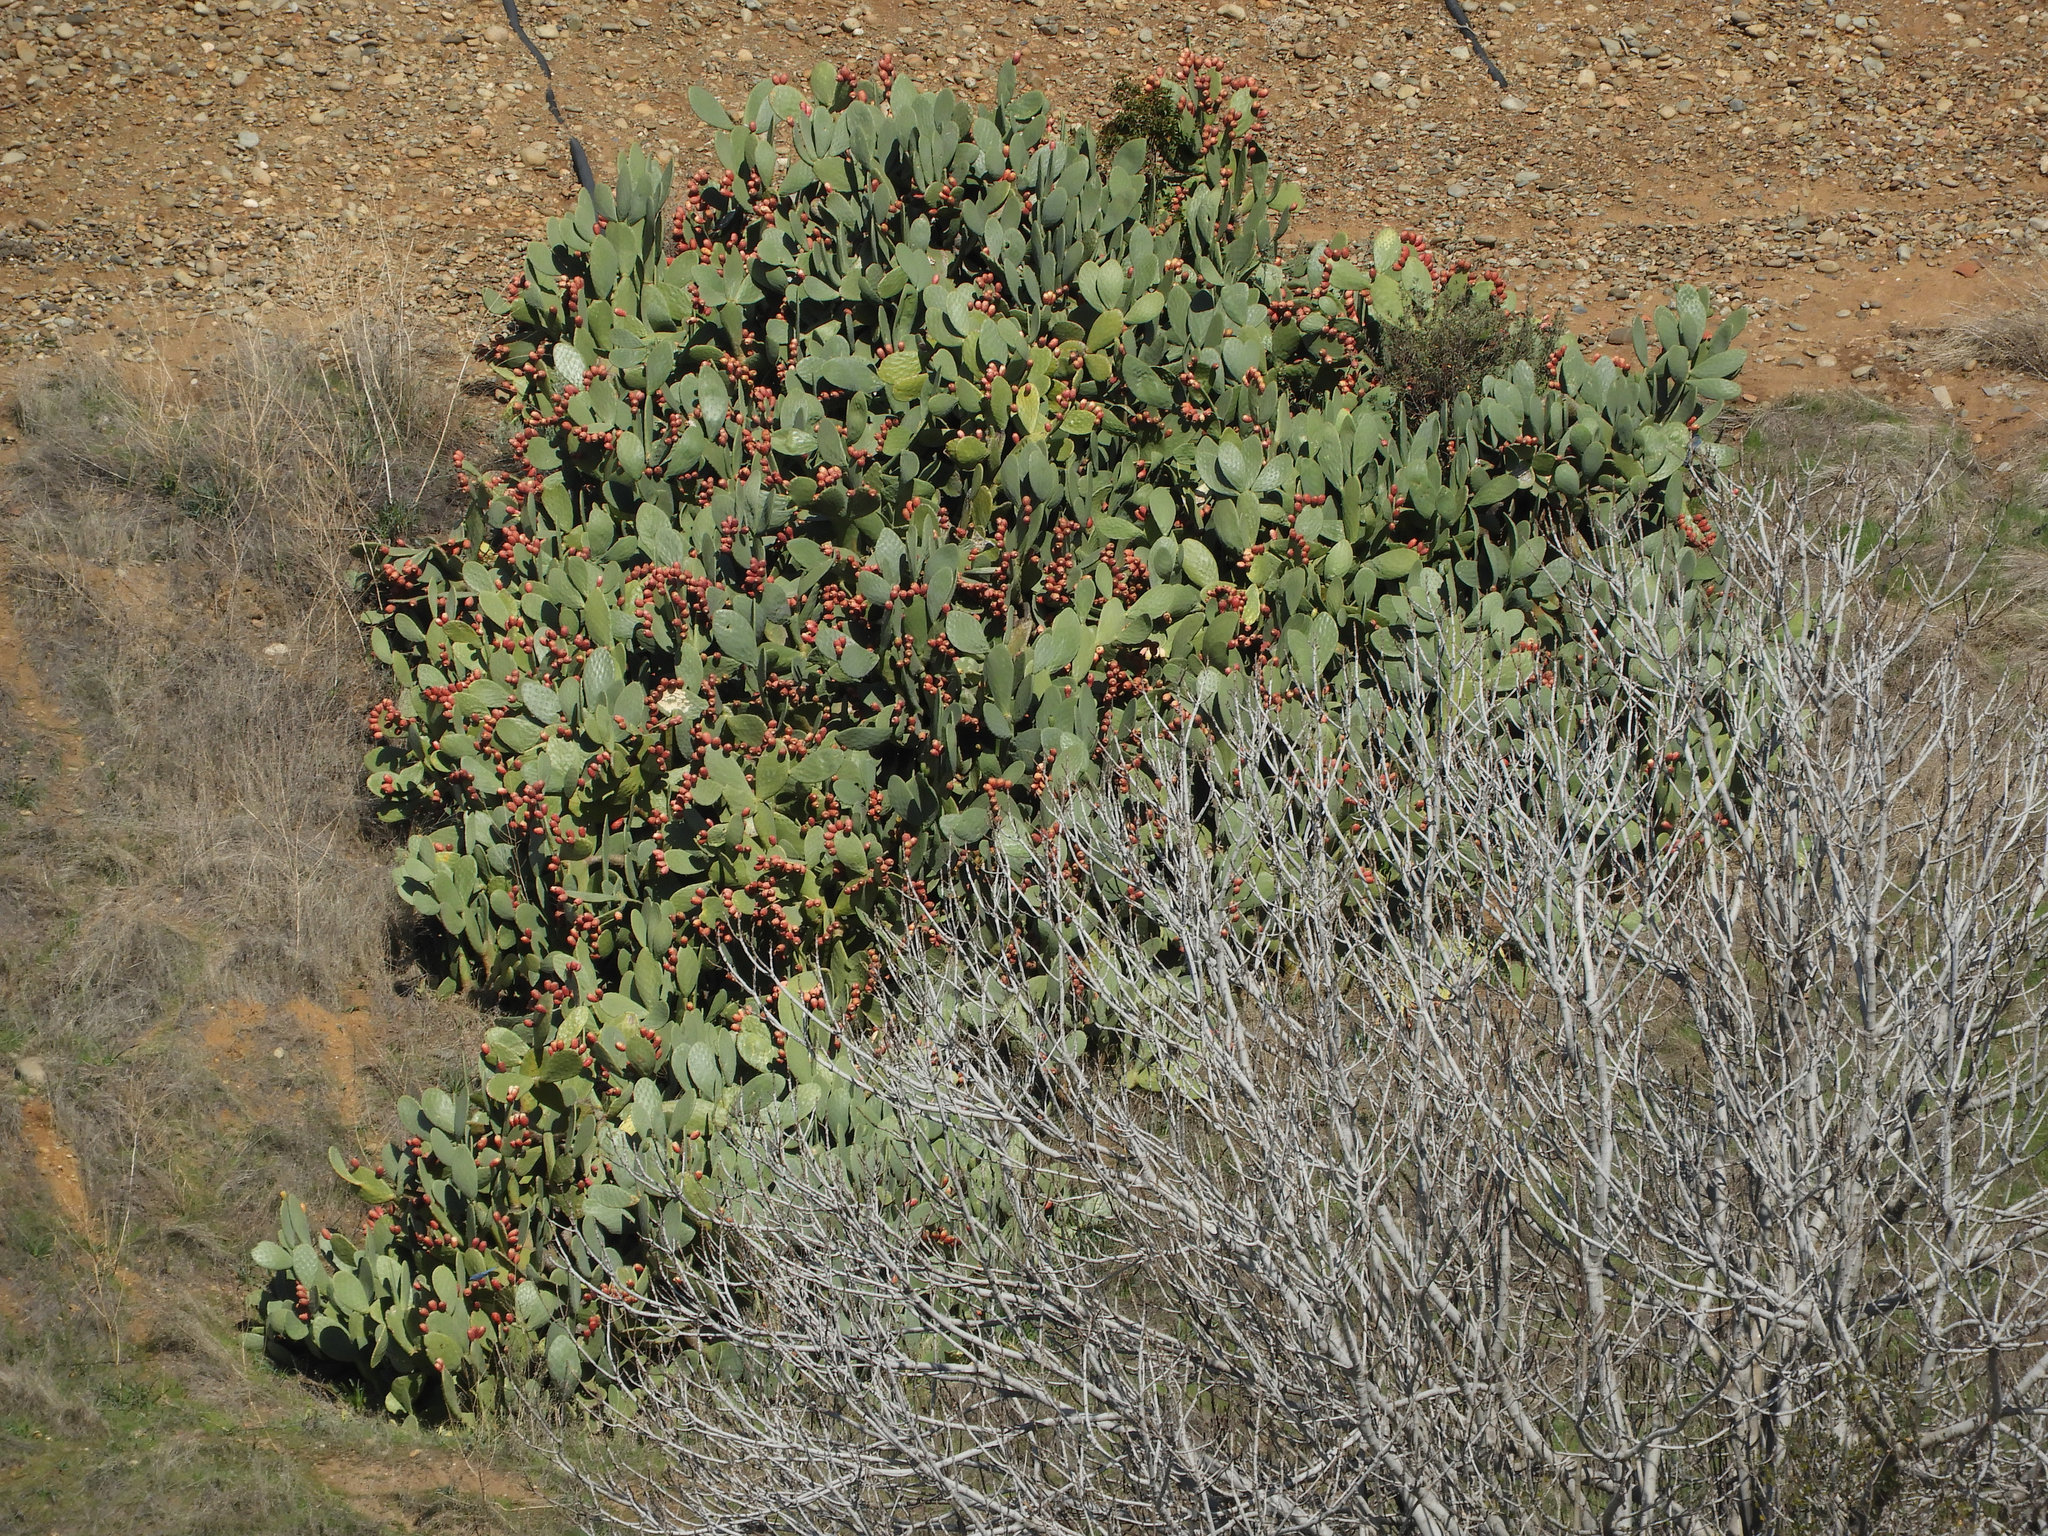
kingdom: Plantae
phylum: Tracheophyta
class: Magnoliopsida
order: Caryophyllales
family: Cactaceae
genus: Opuntia
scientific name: Opuntia ficus-indica
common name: Barbary fig
